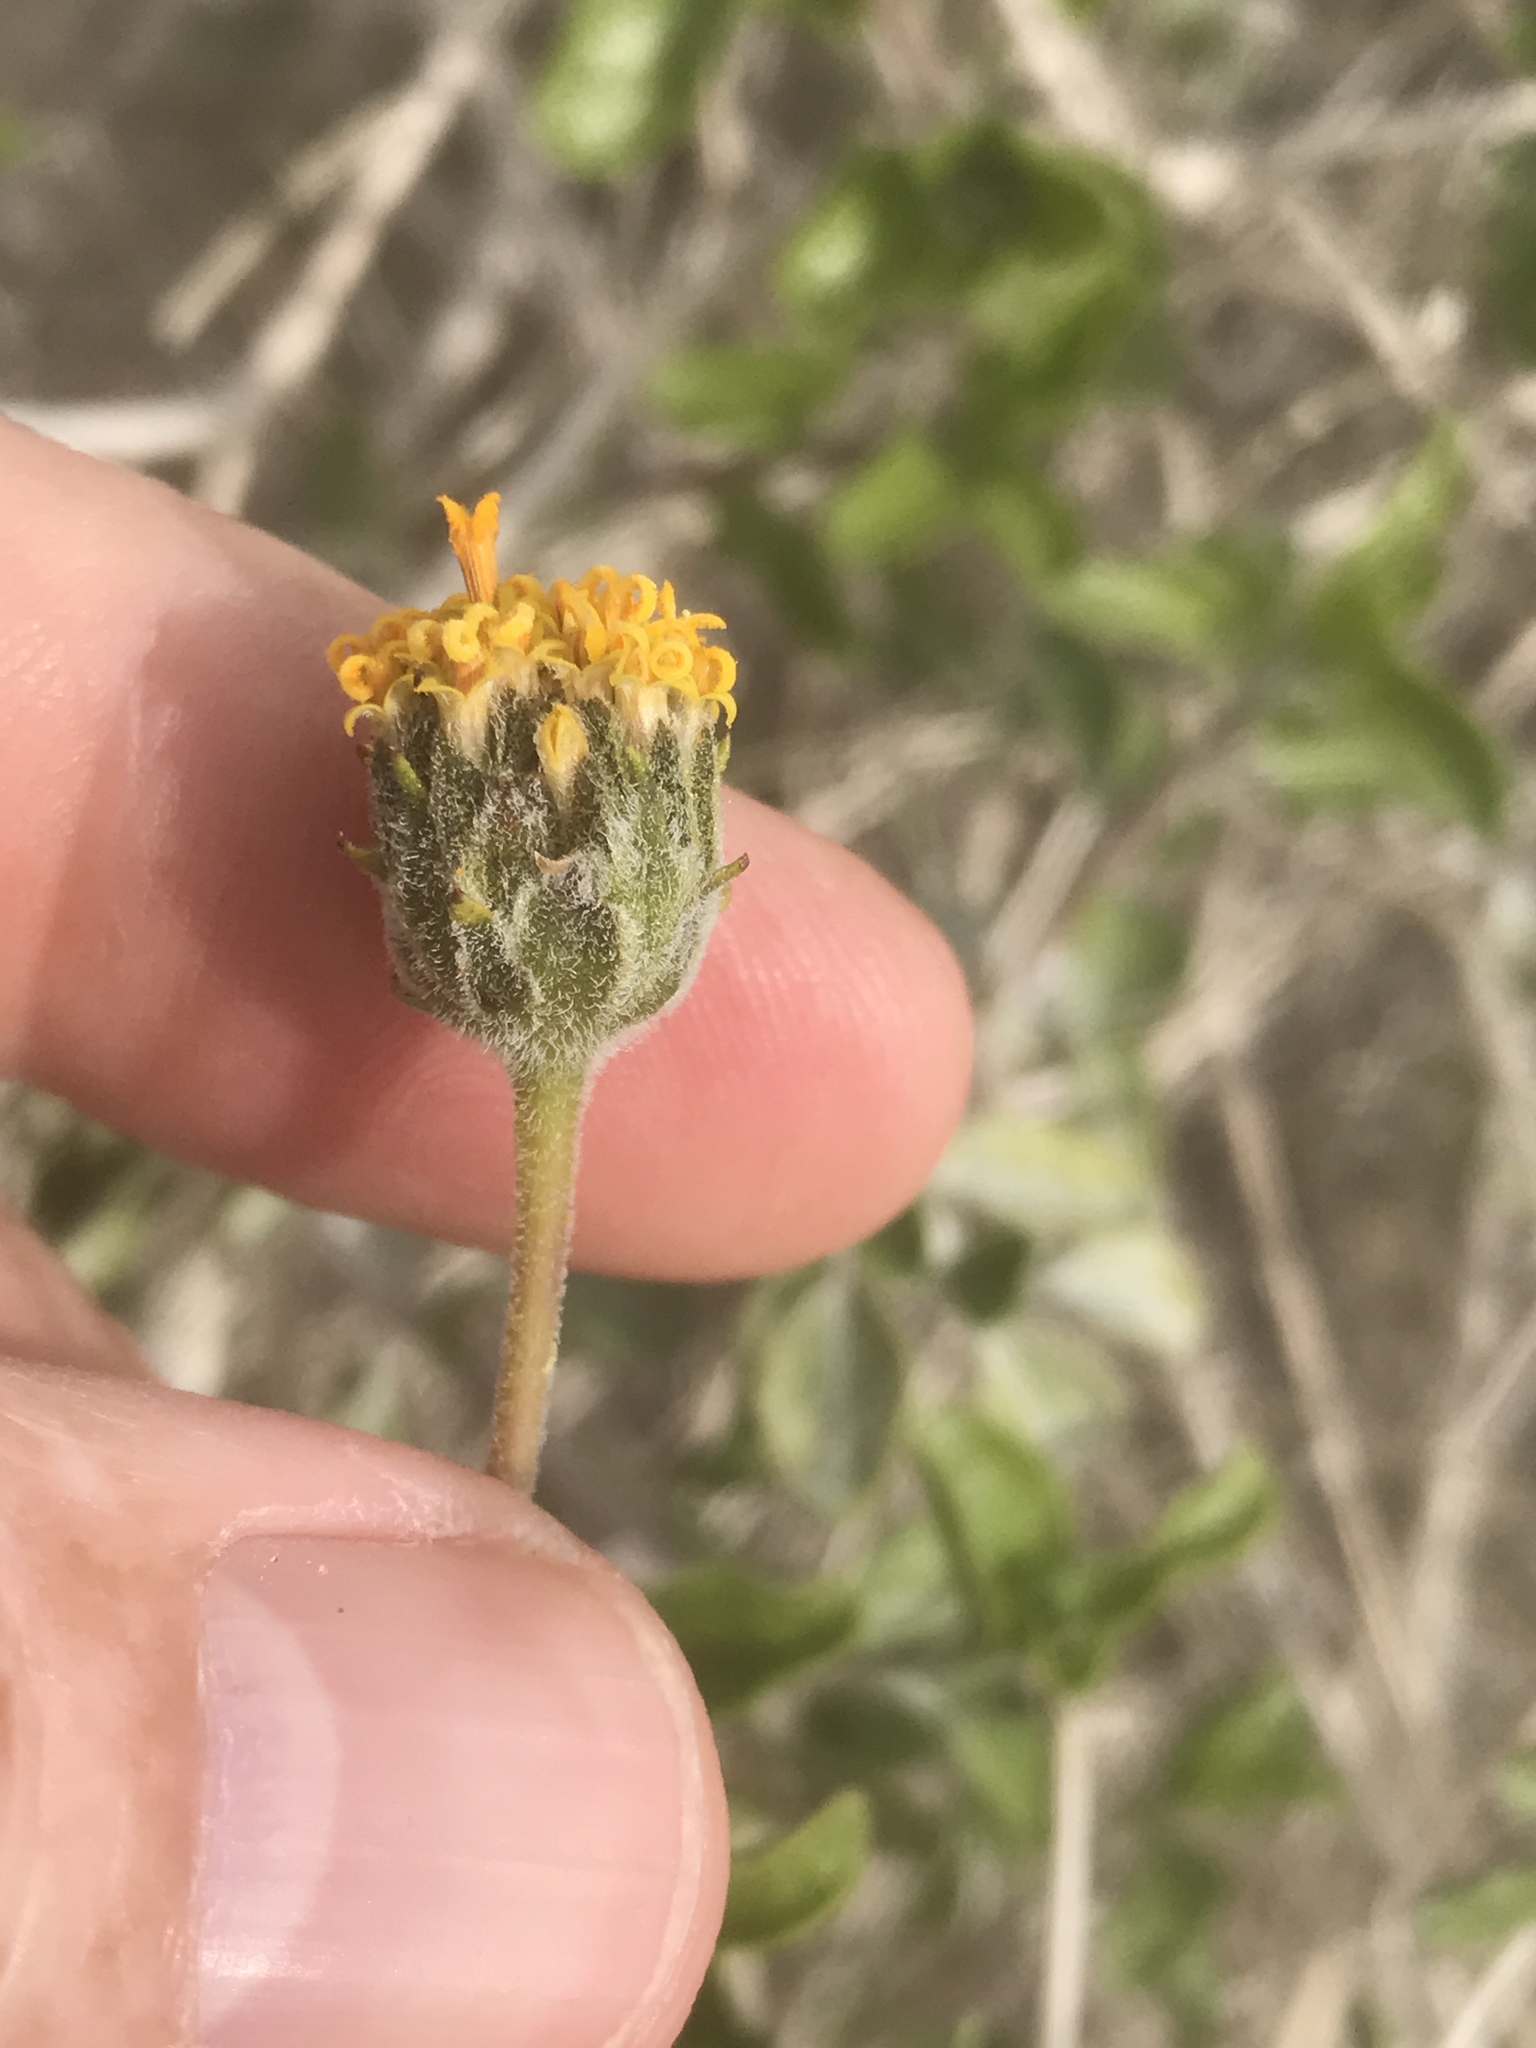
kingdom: Plantae
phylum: Tracheophyta
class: Magnoliopsida
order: Asterales
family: Asteraceae
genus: Encelia
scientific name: Encelia frutescens
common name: Bush encelia
